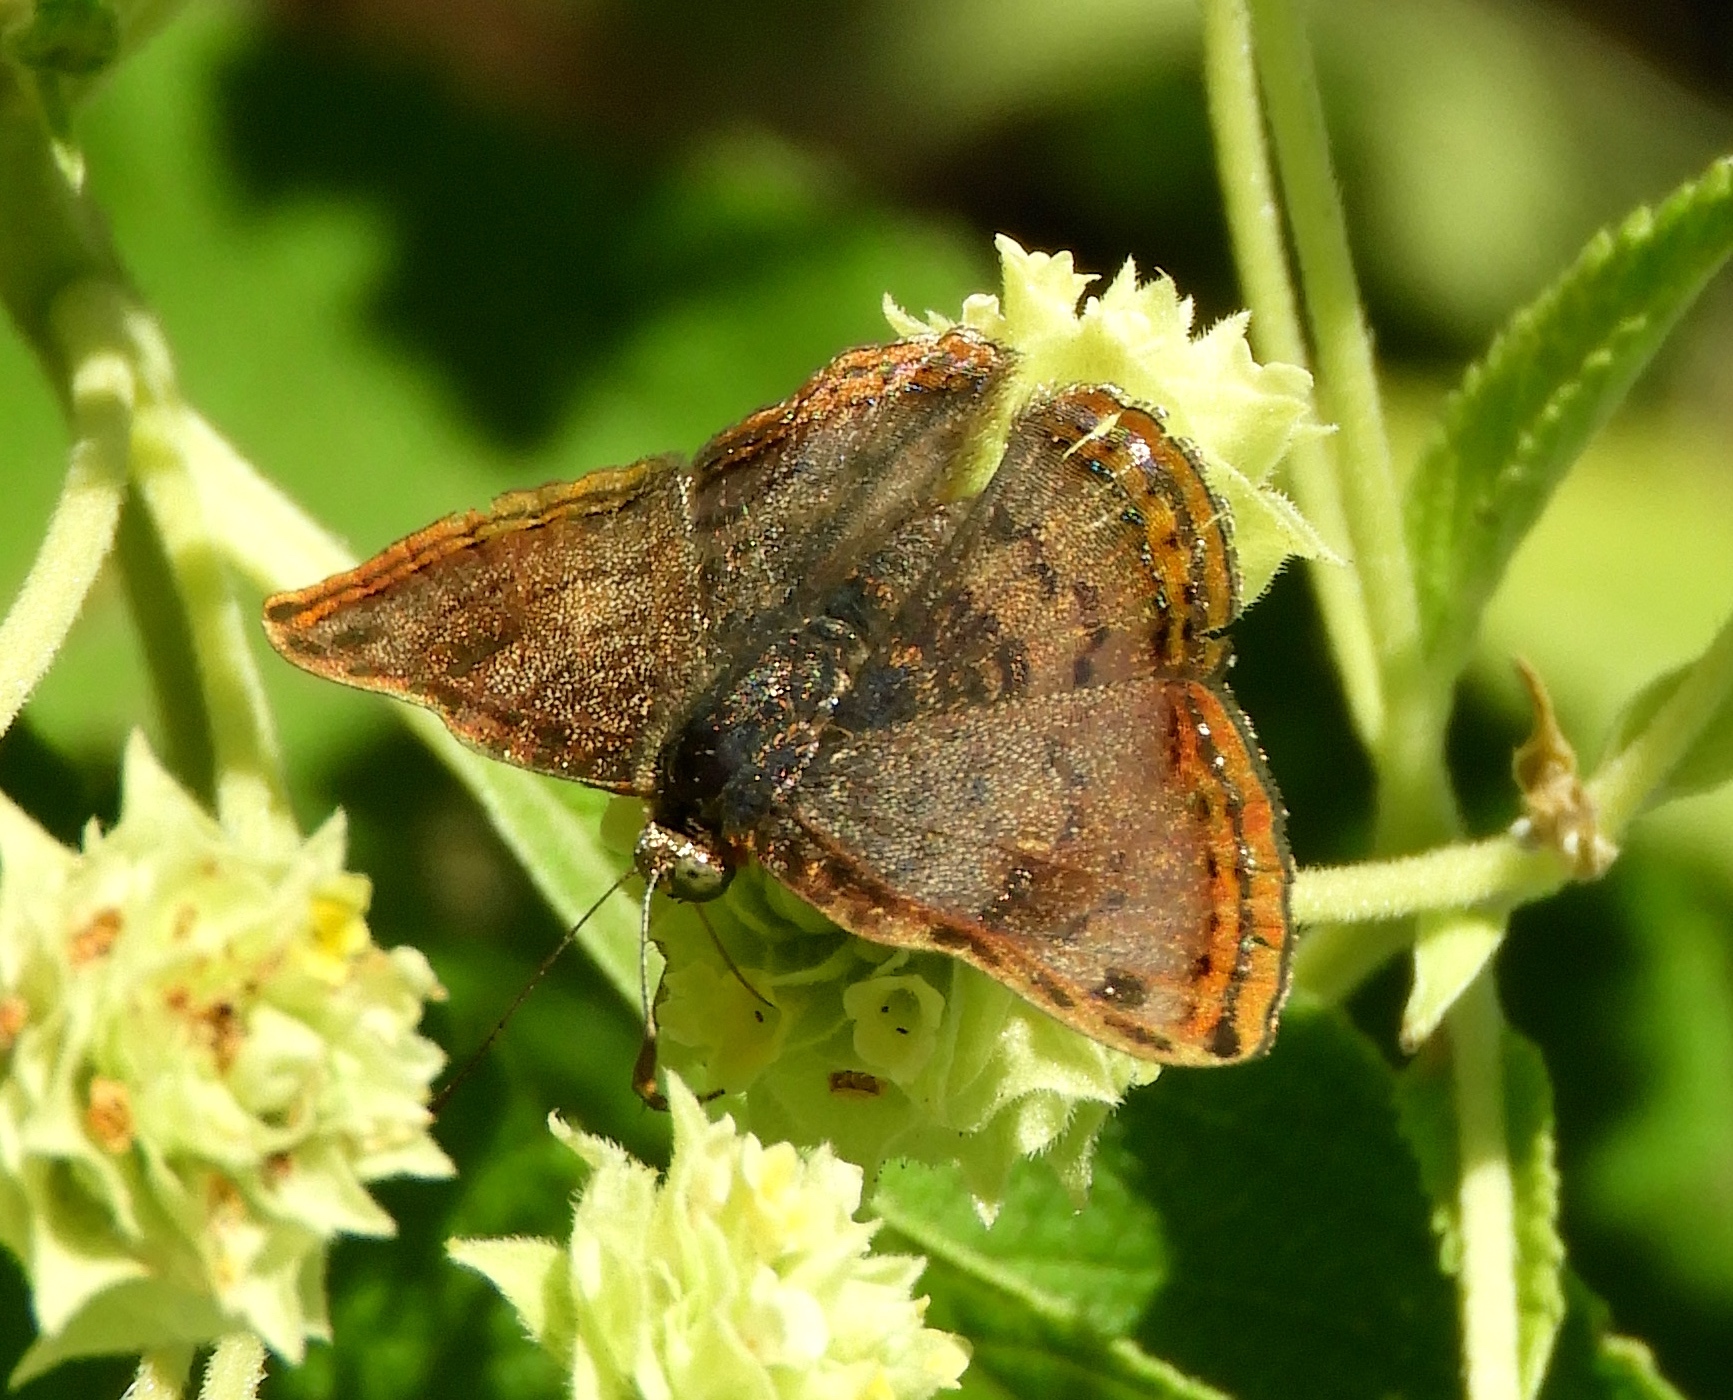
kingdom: Animalia
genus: Caria
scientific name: Caria ino
